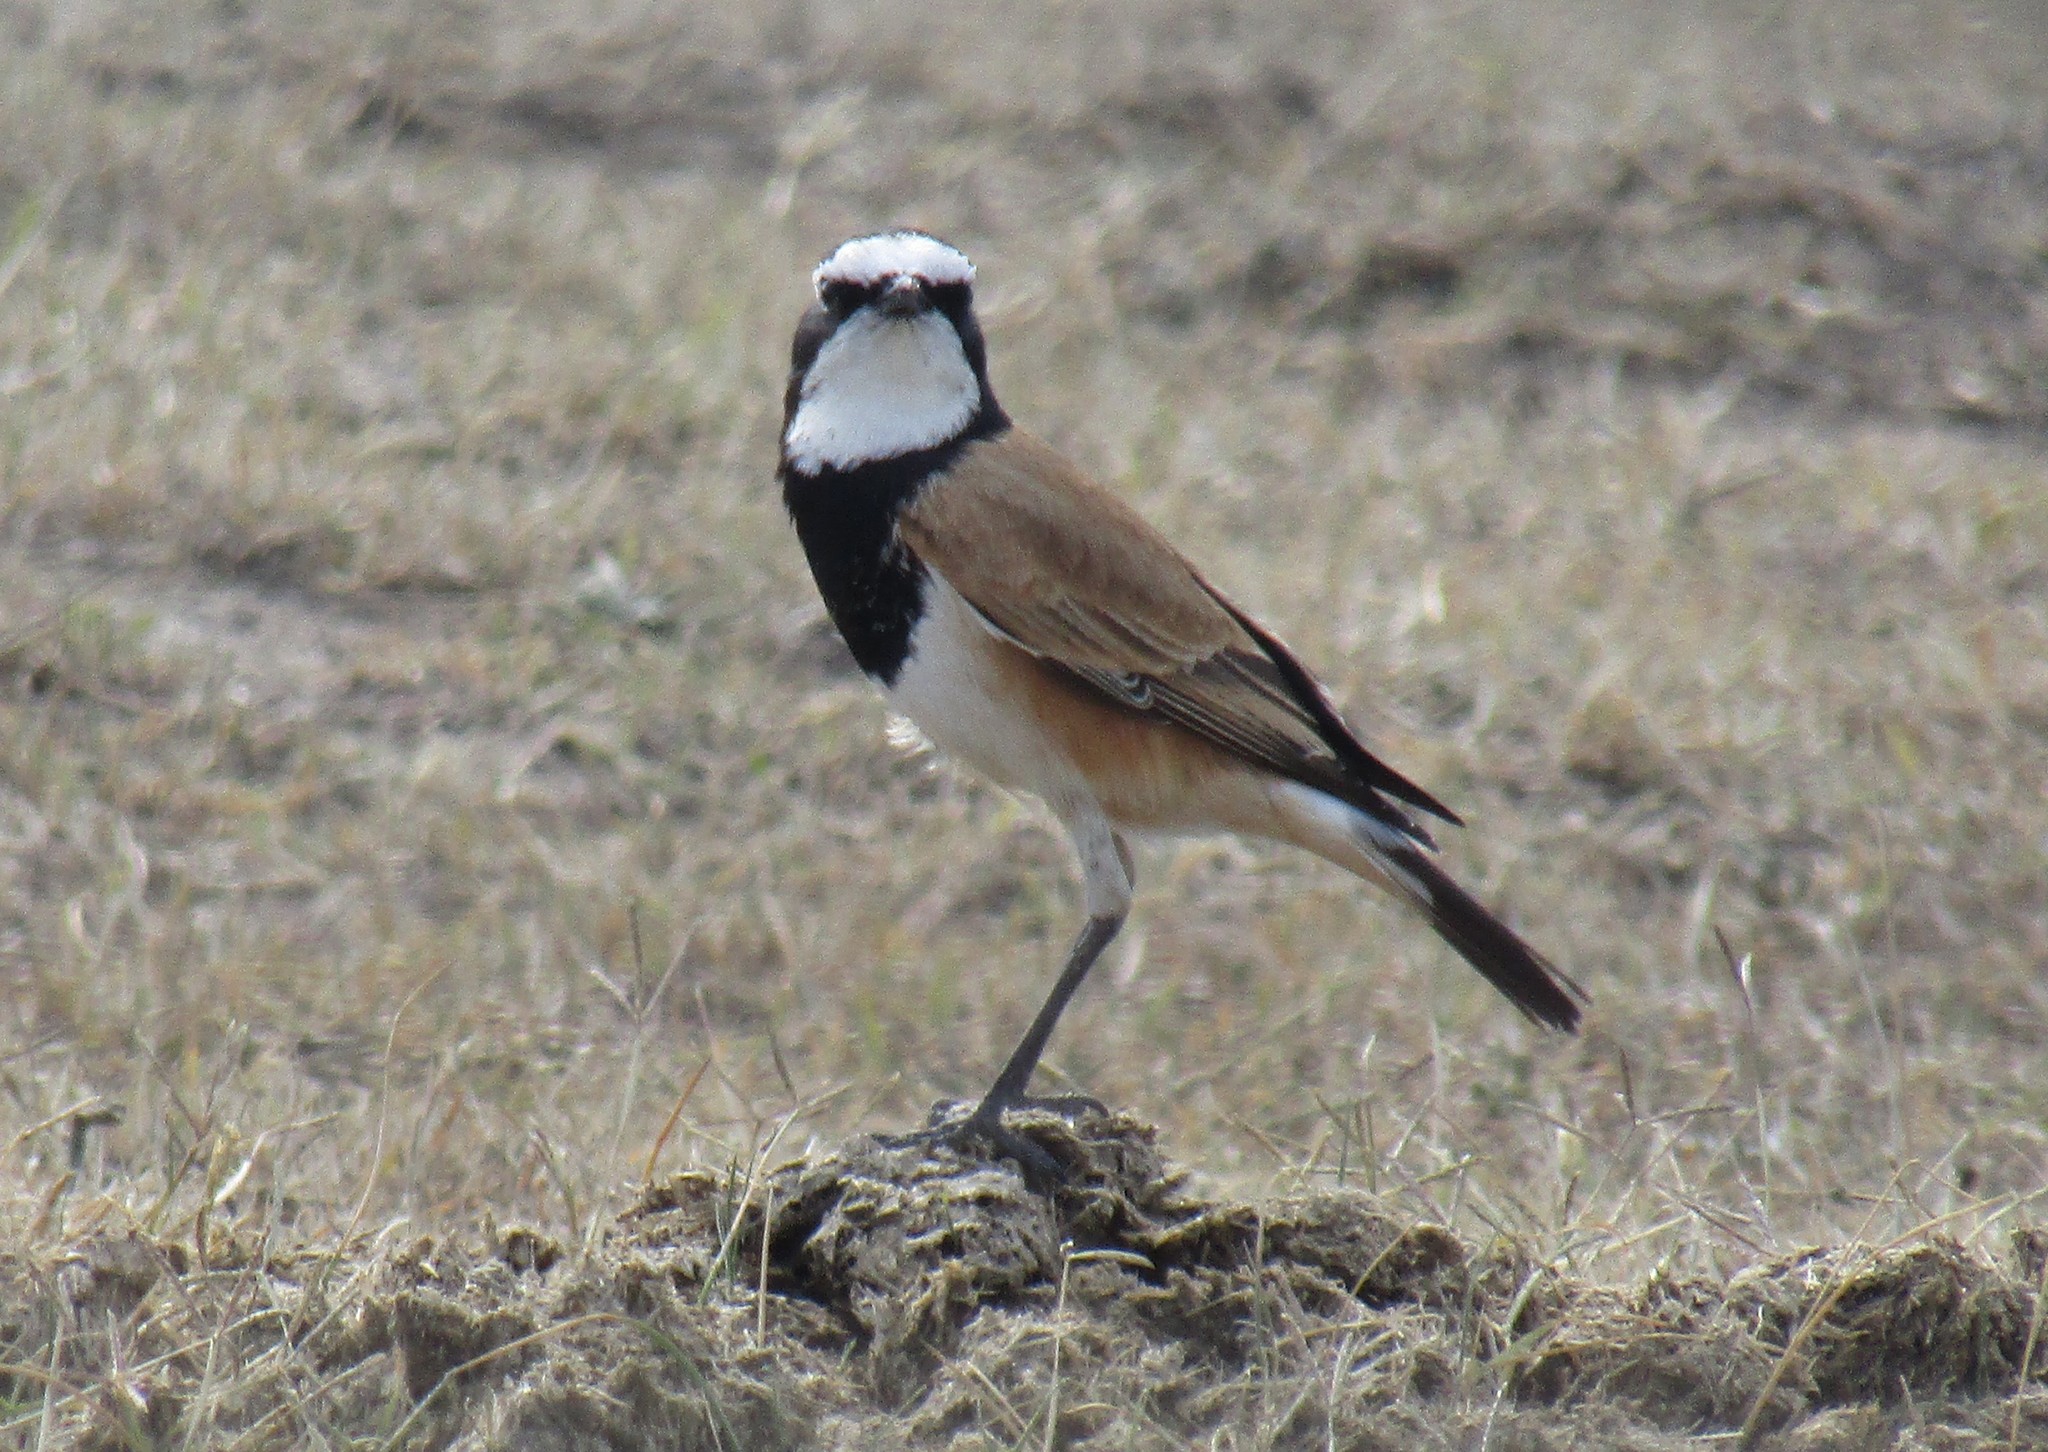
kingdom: Animalia
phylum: Chordata
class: Aves
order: Passeriformes
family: Muscicapidae
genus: Oenanthe
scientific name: Oenanthe pileata
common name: Capped wheatear
